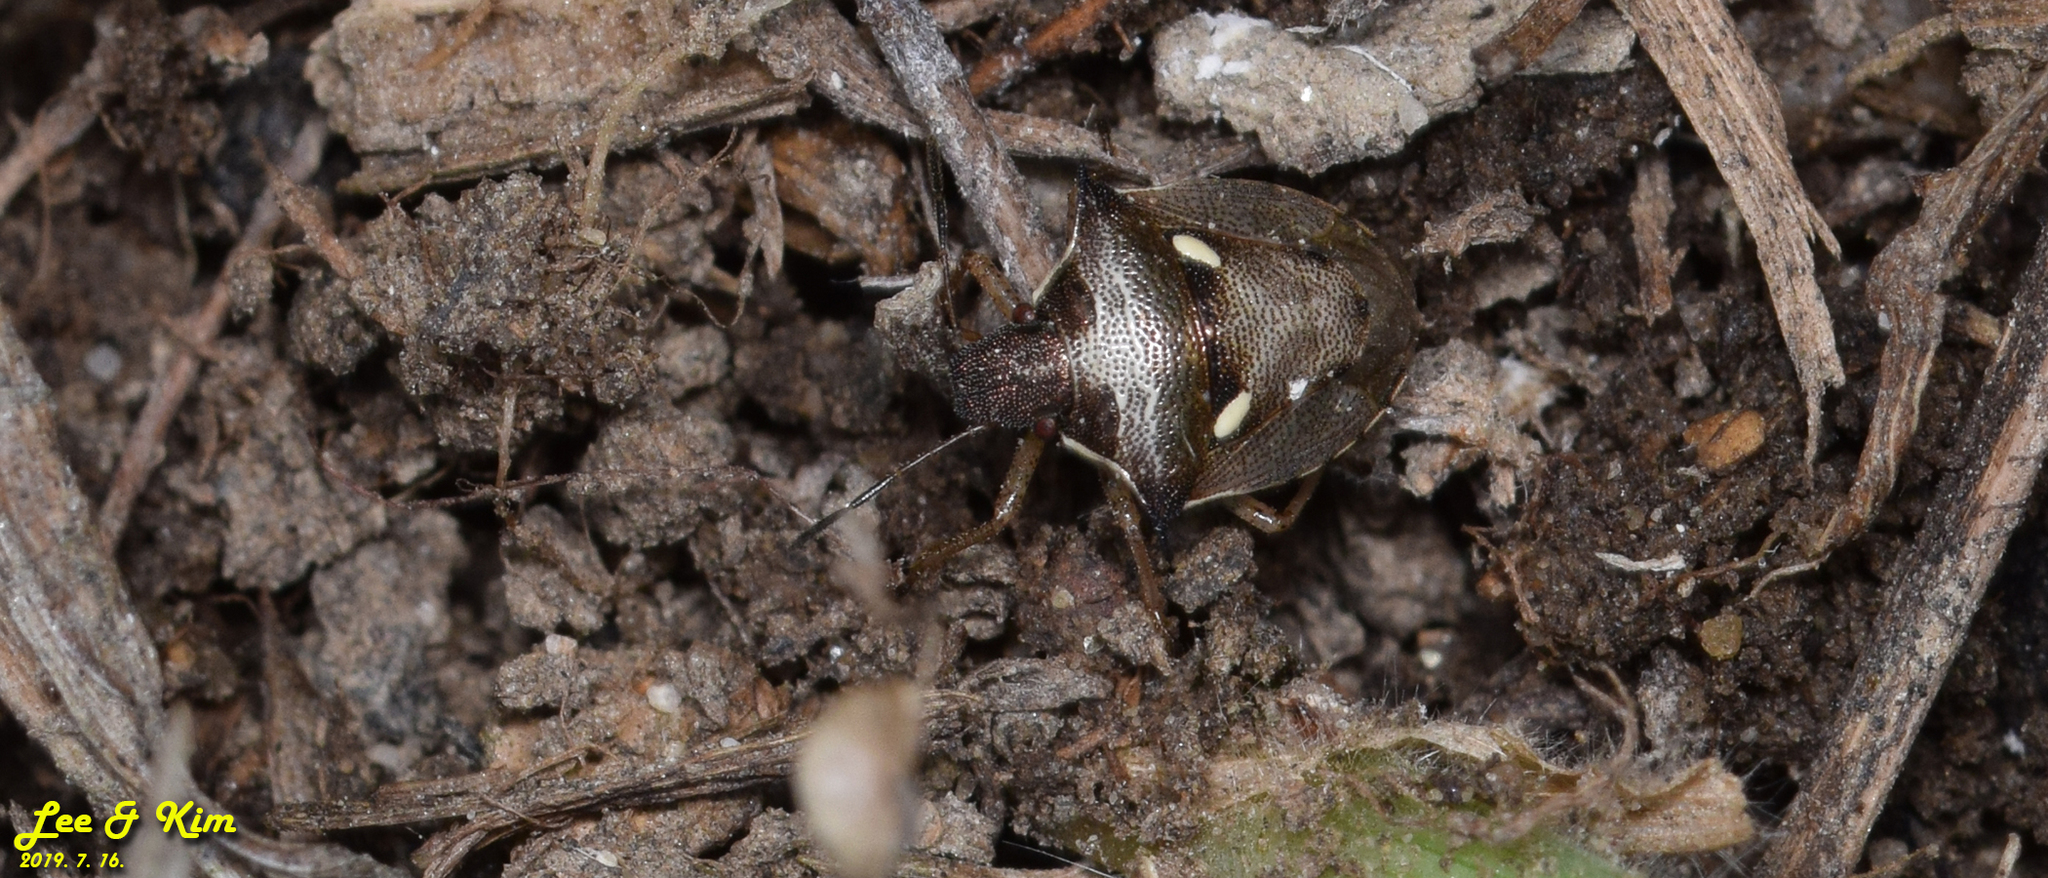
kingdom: Animalia
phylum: Arthropoda
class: Insecta
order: Hemiptera
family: Pentatomidae
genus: Eysarcoris
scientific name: Eysarcoris aeneus
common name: New forest shieldbug
